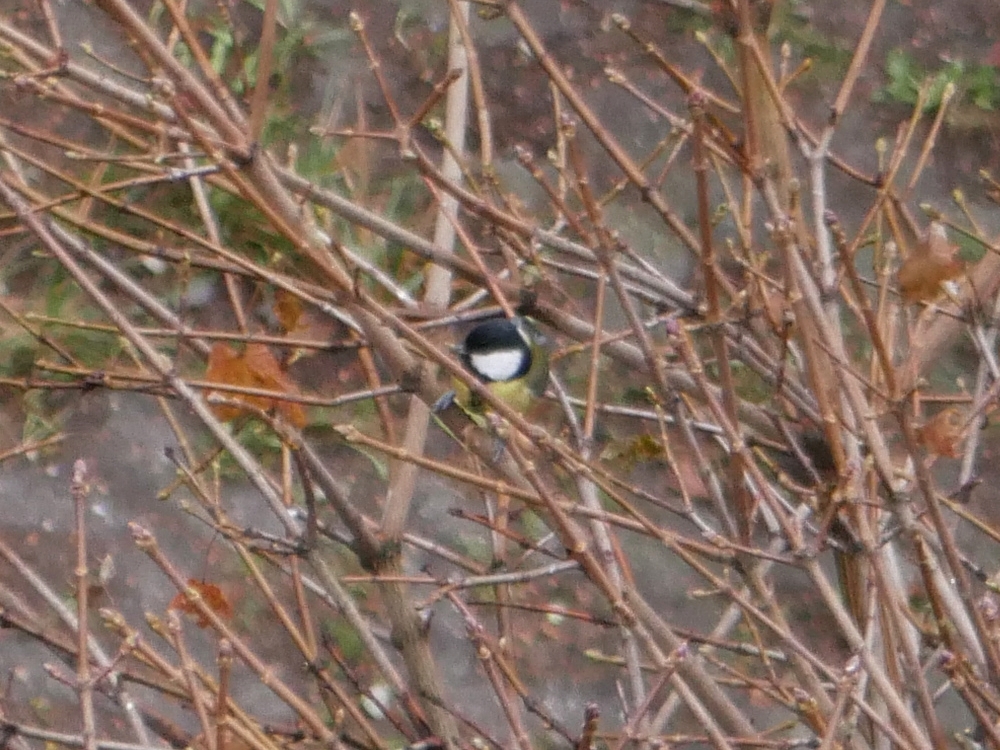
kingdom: Animalia
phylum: Chordata
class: Aves
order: Passeriformes
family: Paridae
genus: Parus
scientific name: Parus major
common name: Great tit
